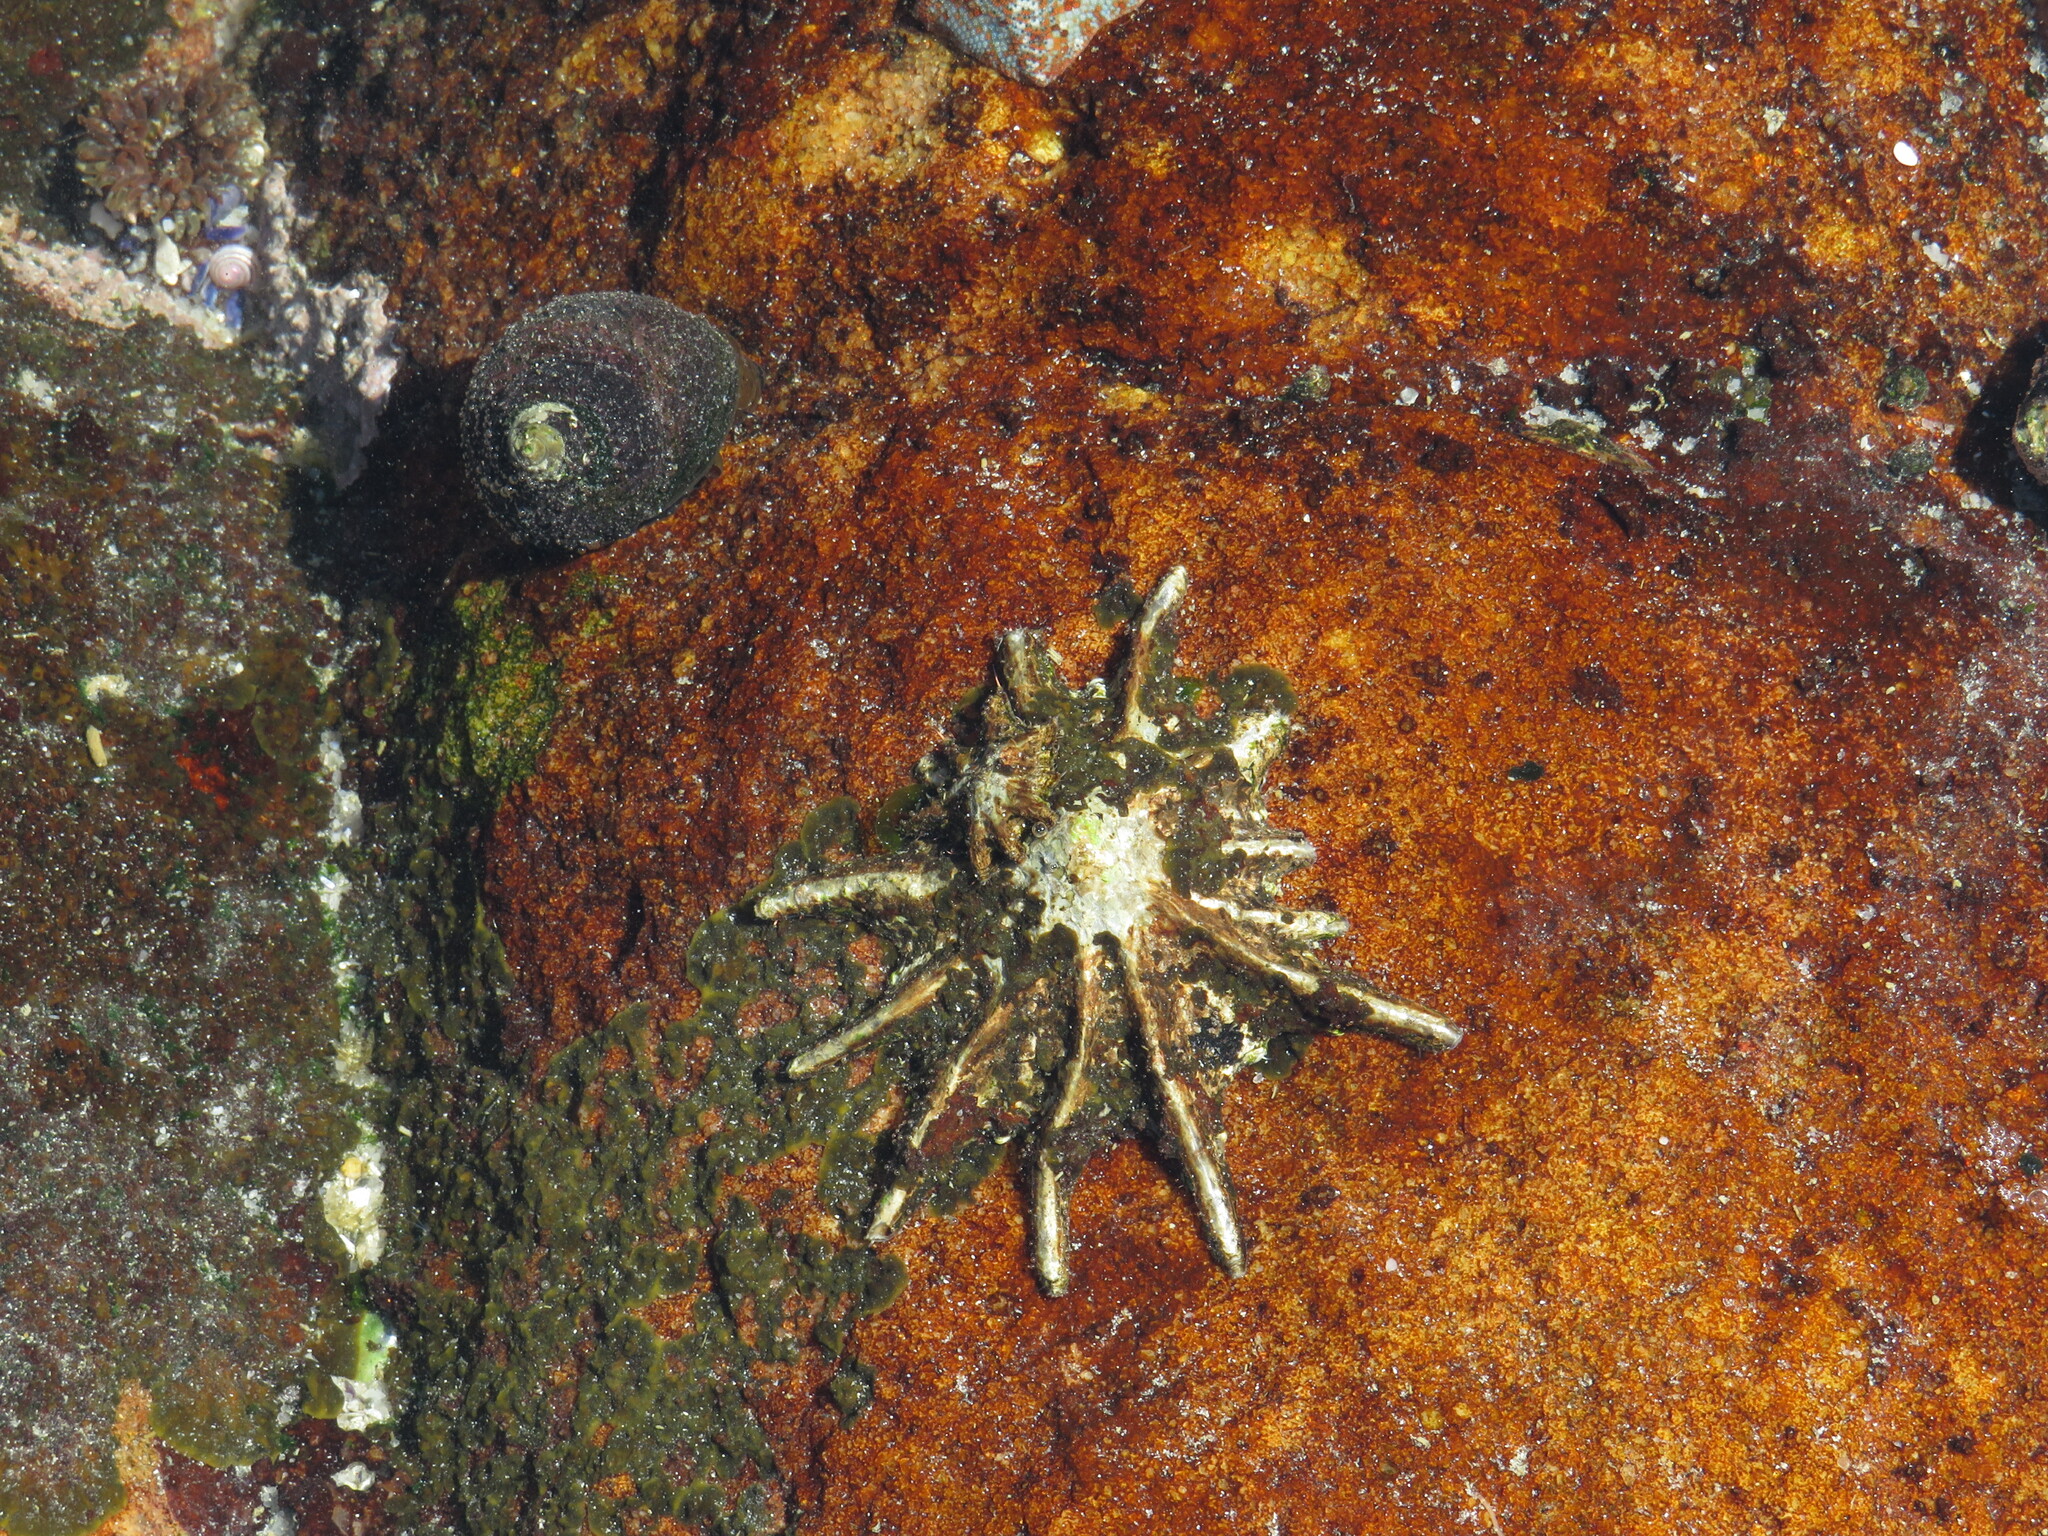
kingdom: Animalia
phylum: Mollusca
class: Gastropoda
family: Patellidae
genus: Scutellastra
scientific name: Scutellastra longicosta
